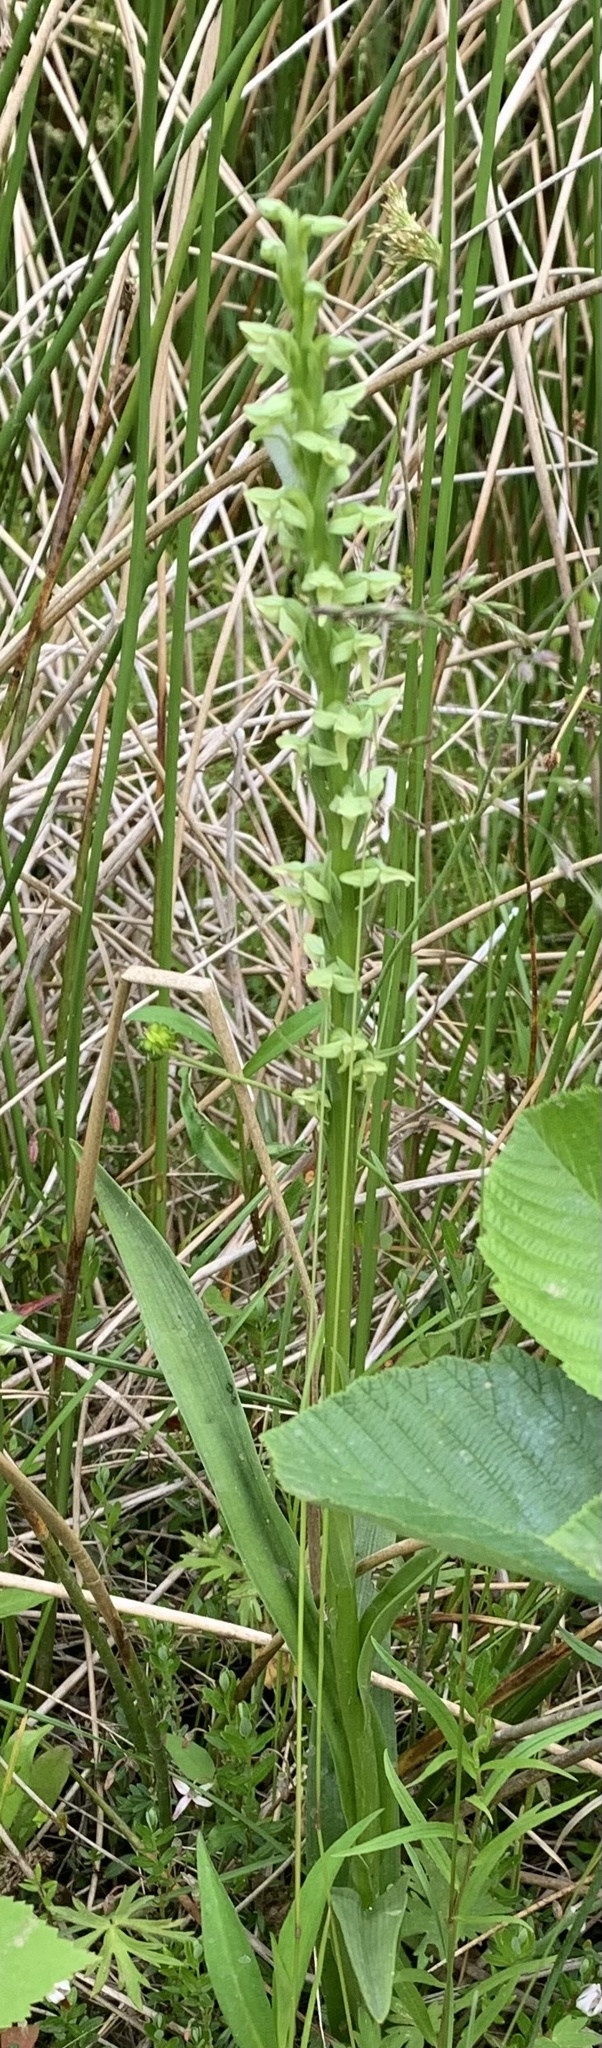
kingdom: Plantae
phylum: Tracheophyta
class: Liliopsida
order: Asparagales
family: Orchidaceae
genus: Platanthera
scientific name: Platanthera huronensis
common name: Fragrant green orchid
